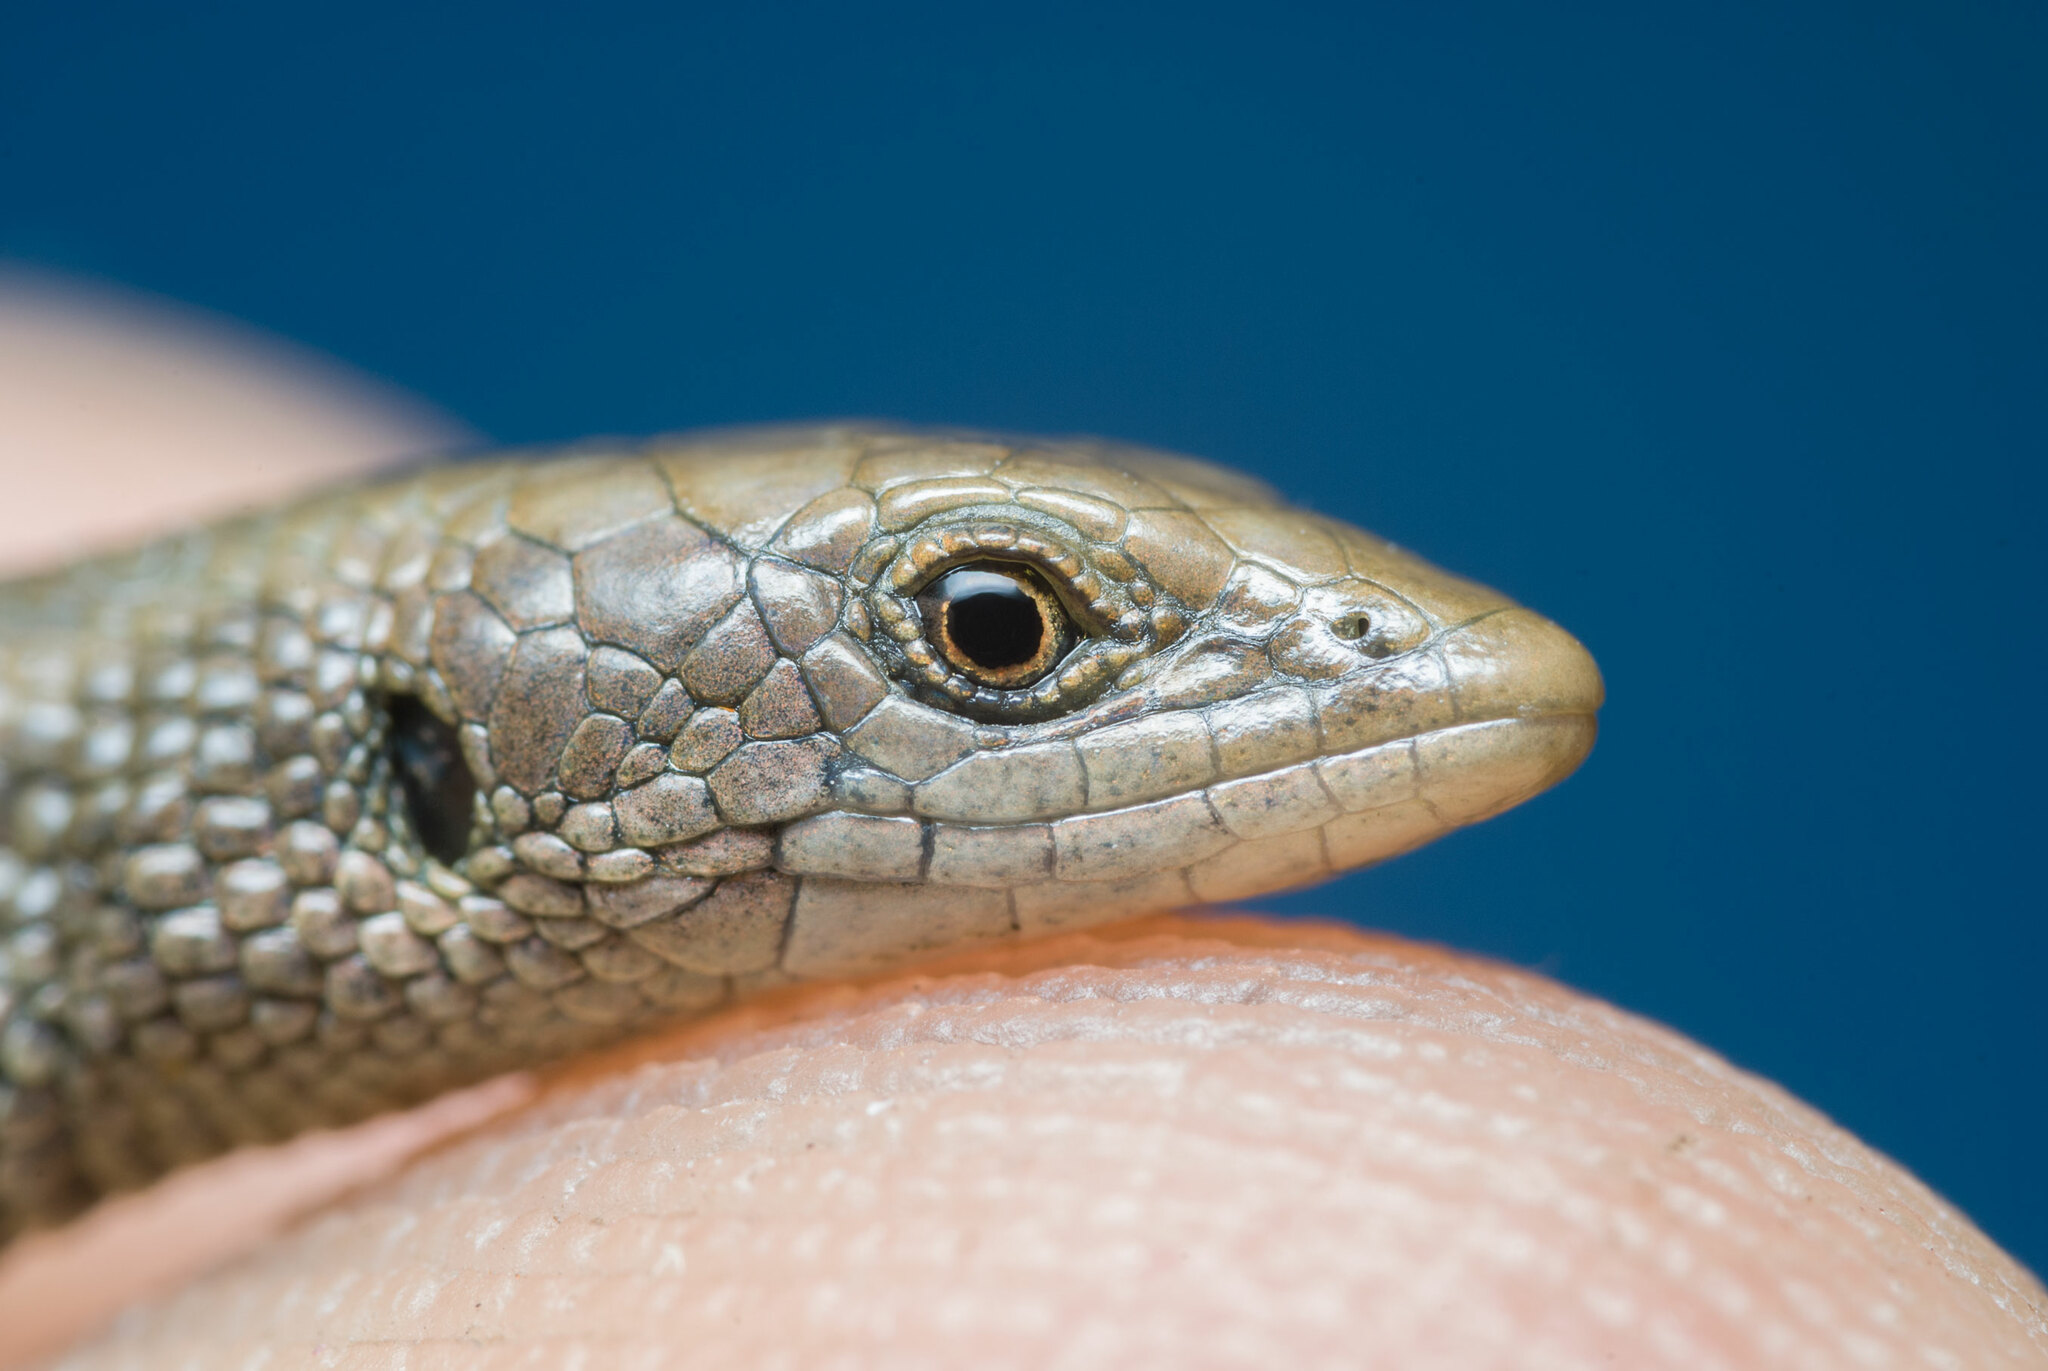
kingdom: Animalia
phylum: Chordata
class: Squamata
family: Gymnophthalmidae
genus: Anadia
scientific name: Anadia bogotensis
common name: Bogota anadia
